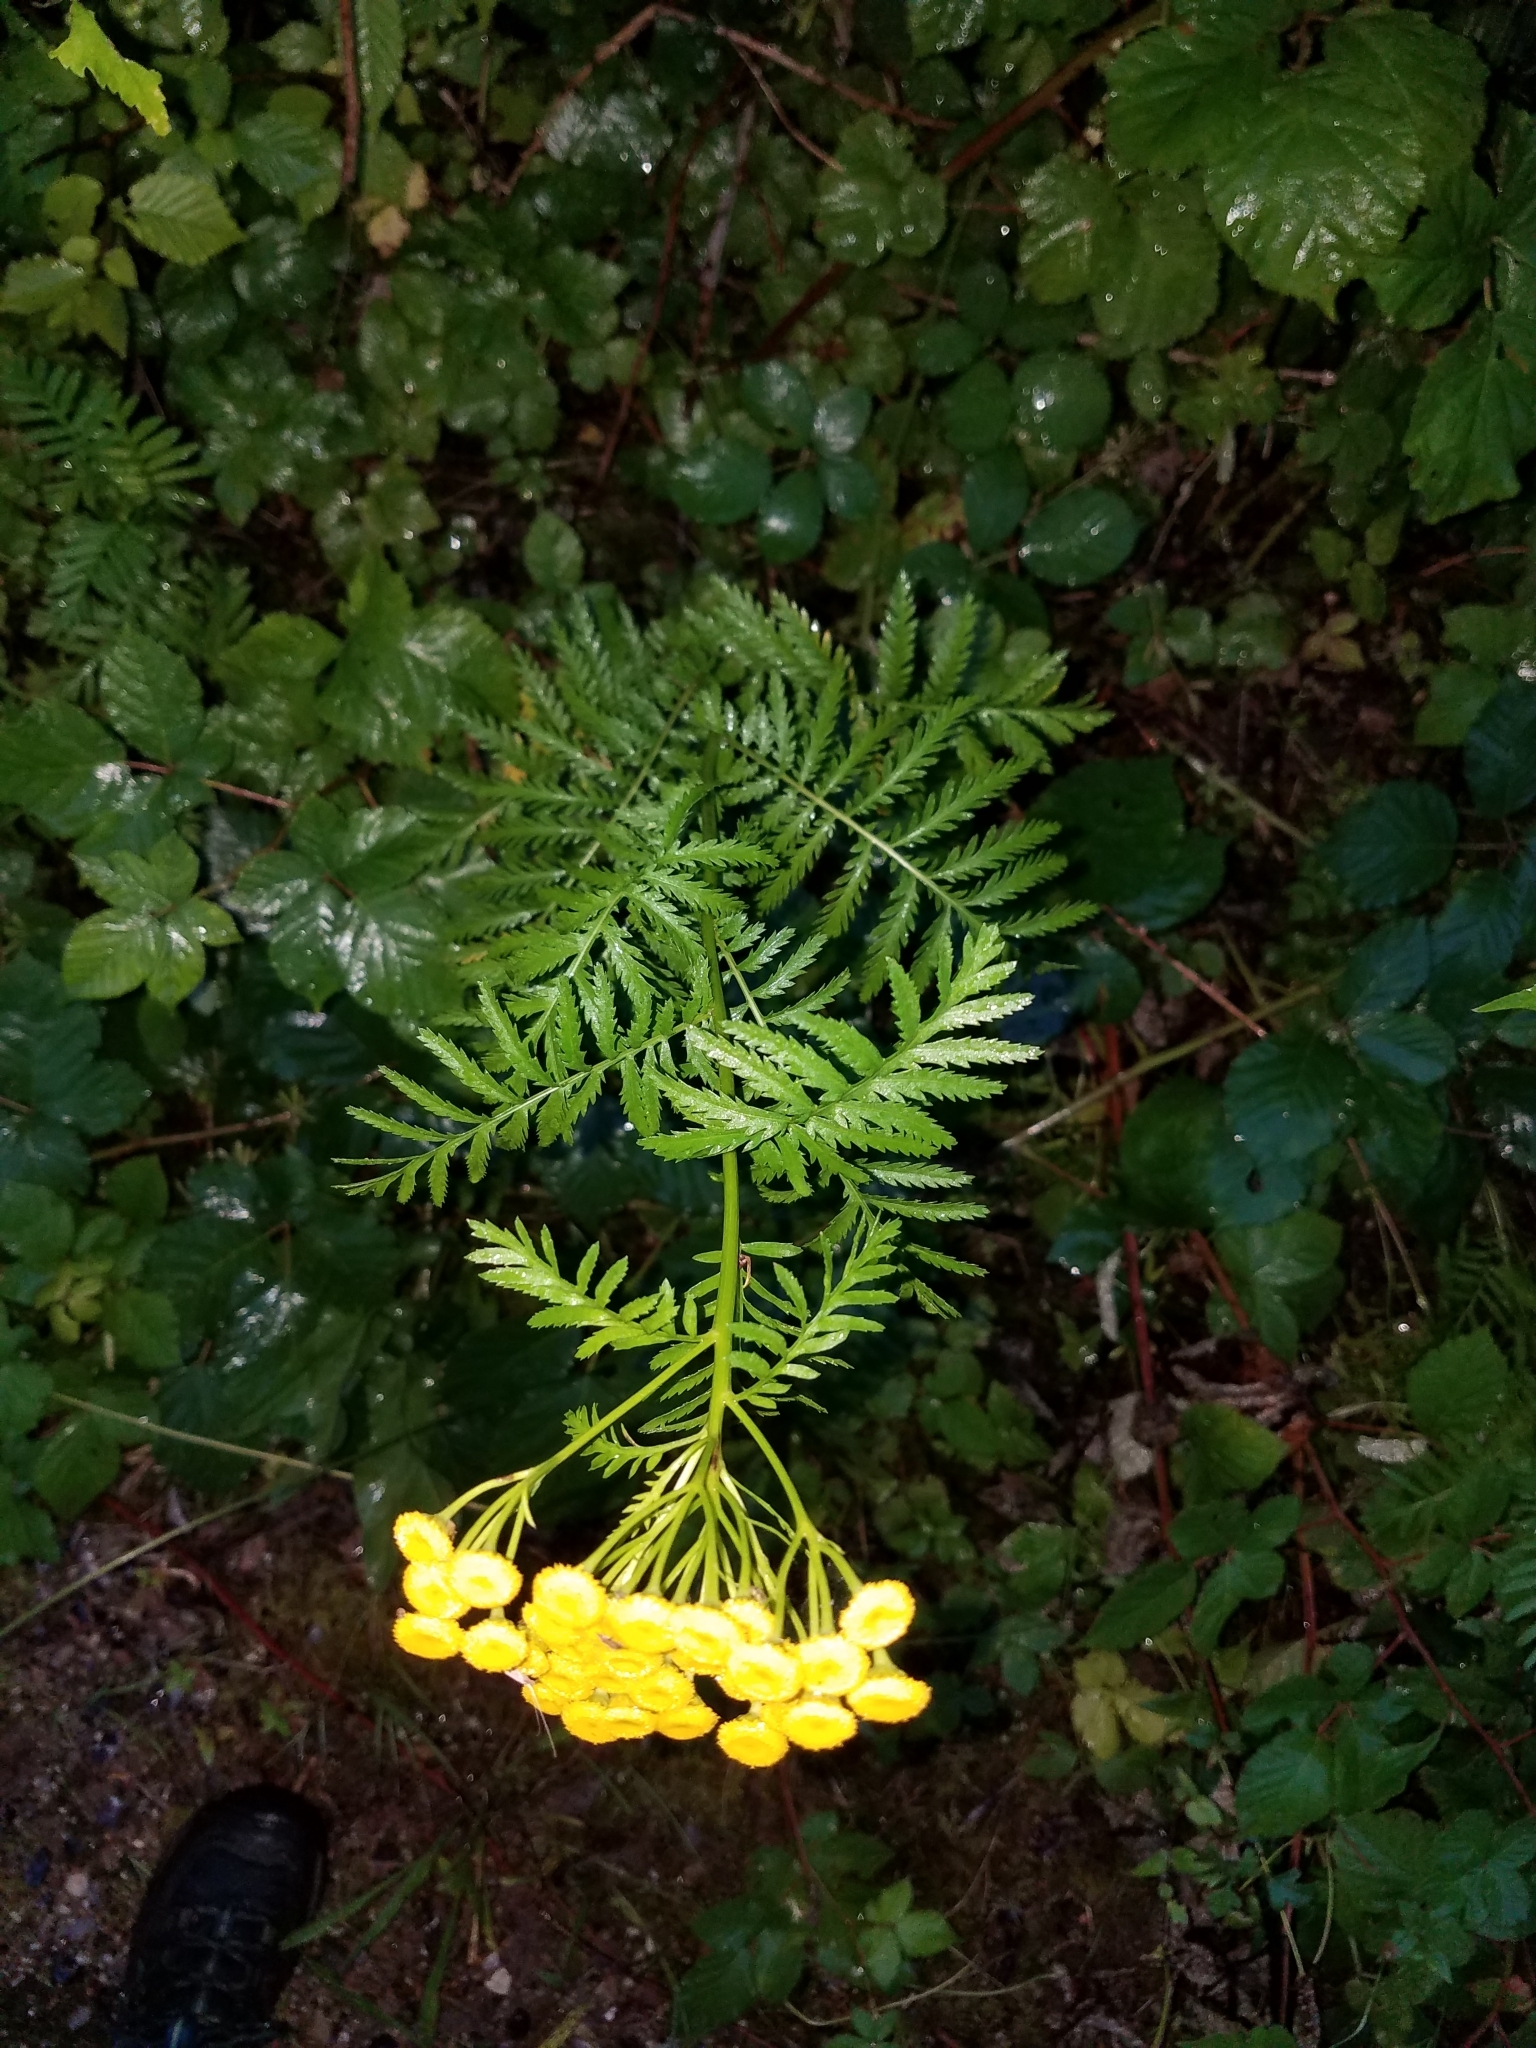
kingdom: Plantae
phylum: Tracheophyta
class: Magnoliopsida
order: Asterales
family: Asteraceae
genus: Tanacetum
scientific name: Tanacetum vulgare
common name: Common tansy
